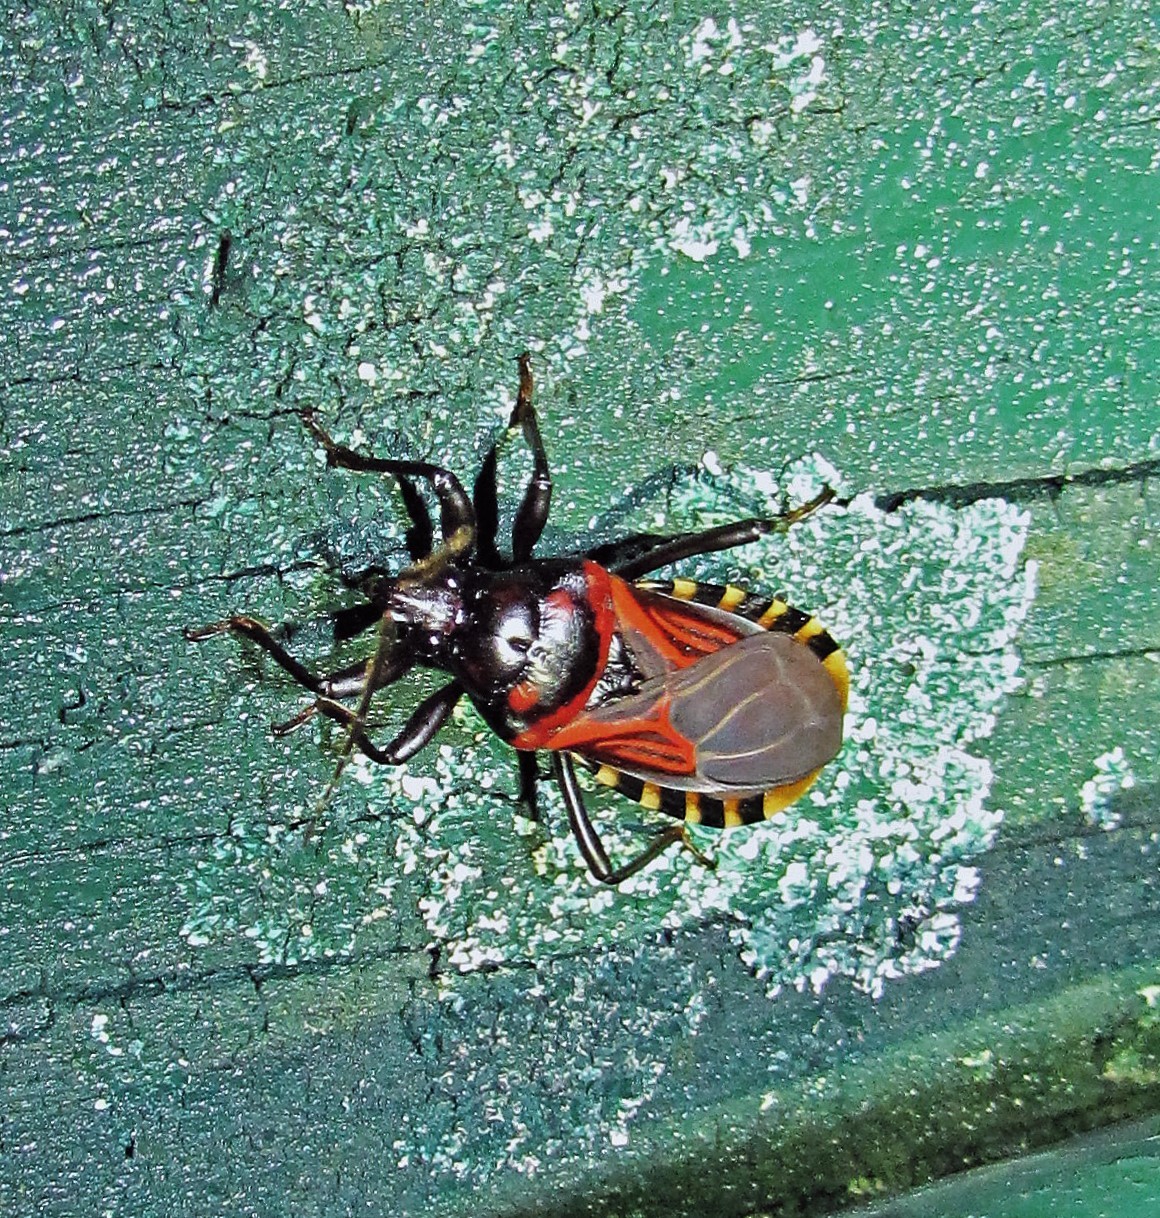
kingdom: Animalia
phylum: Arthropoda
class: Insecta
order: Hemiptera
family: Reduviidae
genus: Brontostoma
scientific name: Brontostoma colossus
